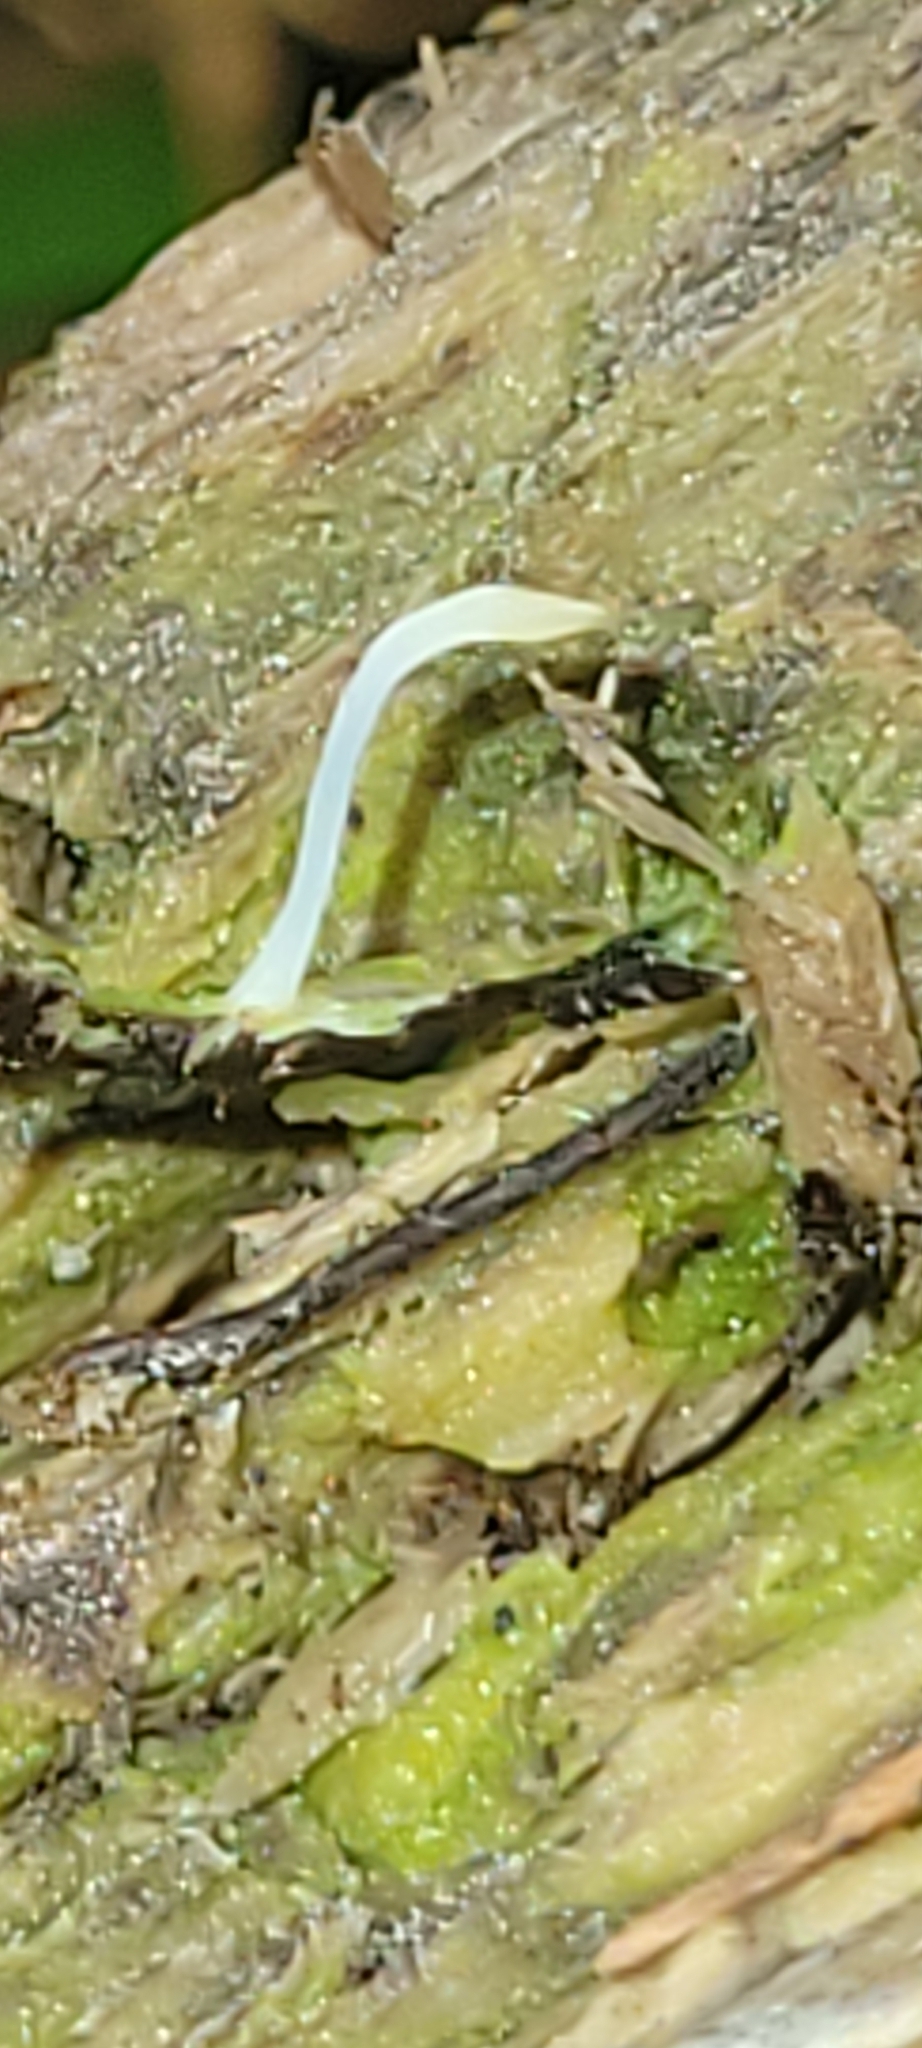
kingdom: Fungi
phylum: Basidiomycota
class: Agaricomycetes
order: Cantharellales
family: Hydnaceae
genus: Multiclavula
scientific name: Multiclavula mucida
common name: White green-algae coral
